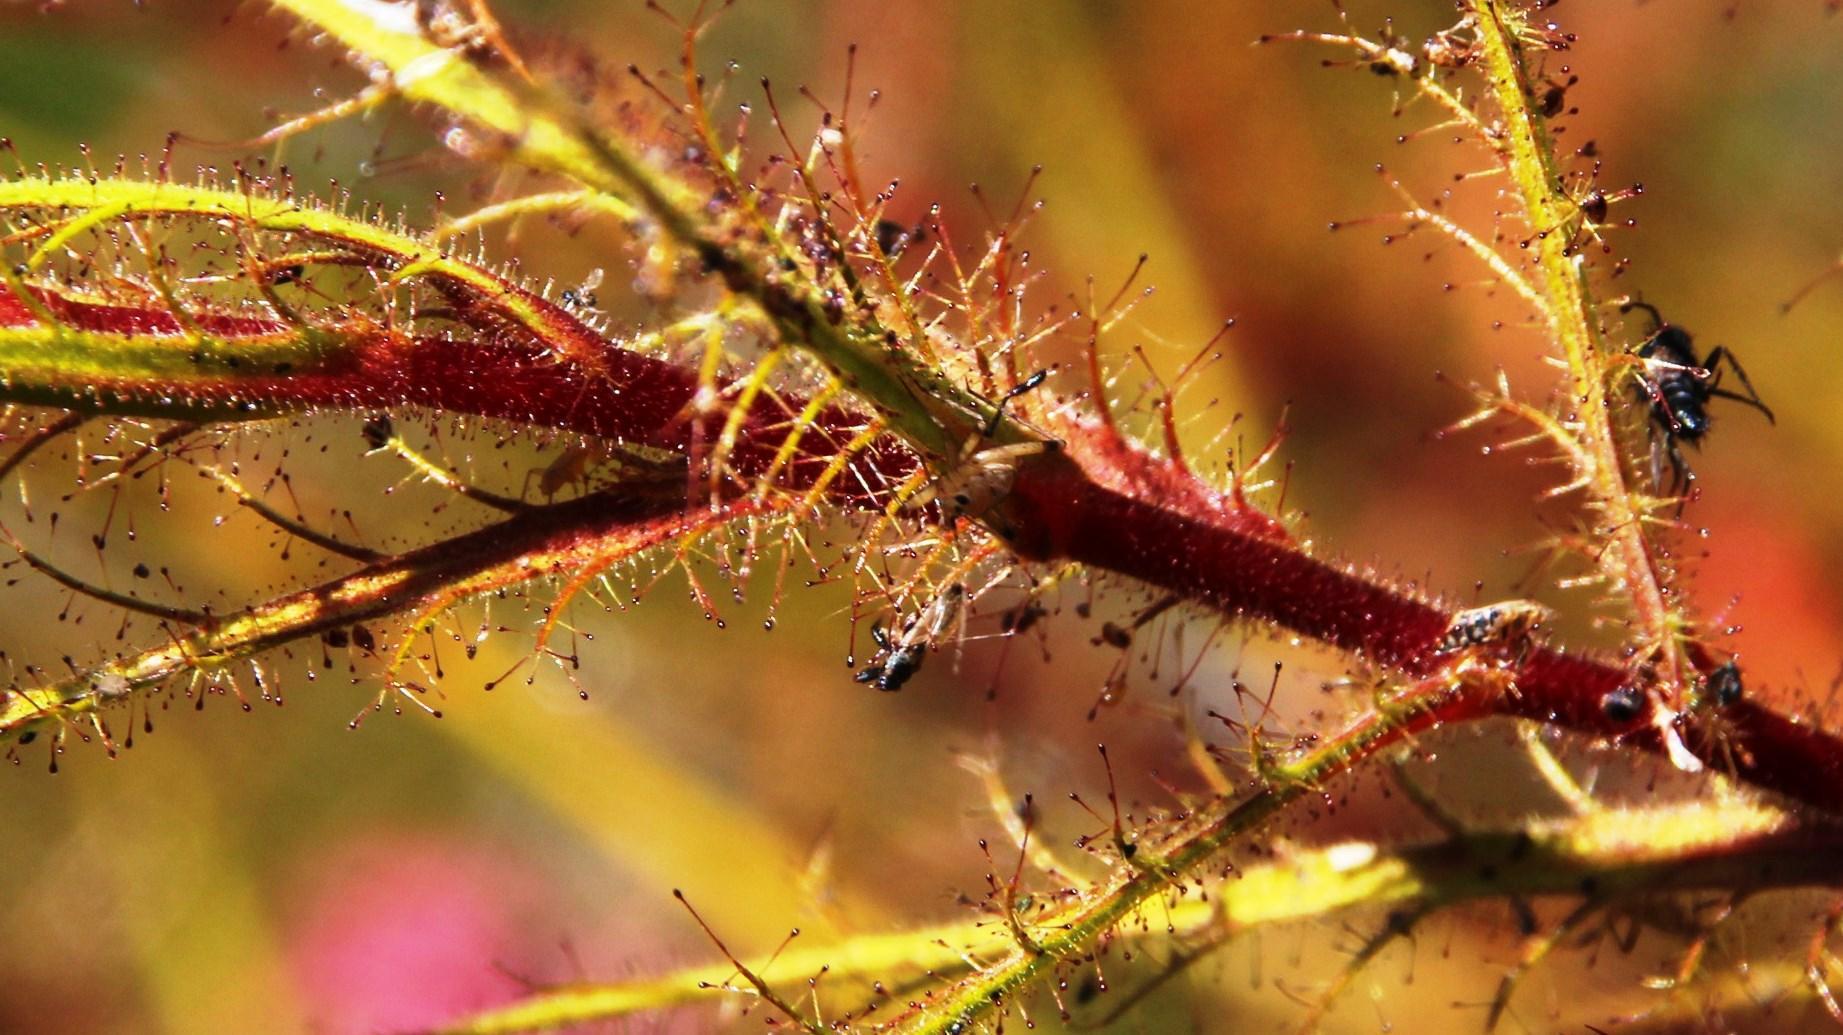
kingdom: Animalia
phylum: Arthropoda
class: Insecta
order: Hemiptera
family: Miridae
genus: Pameridea
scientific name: Pameridea marlothi
